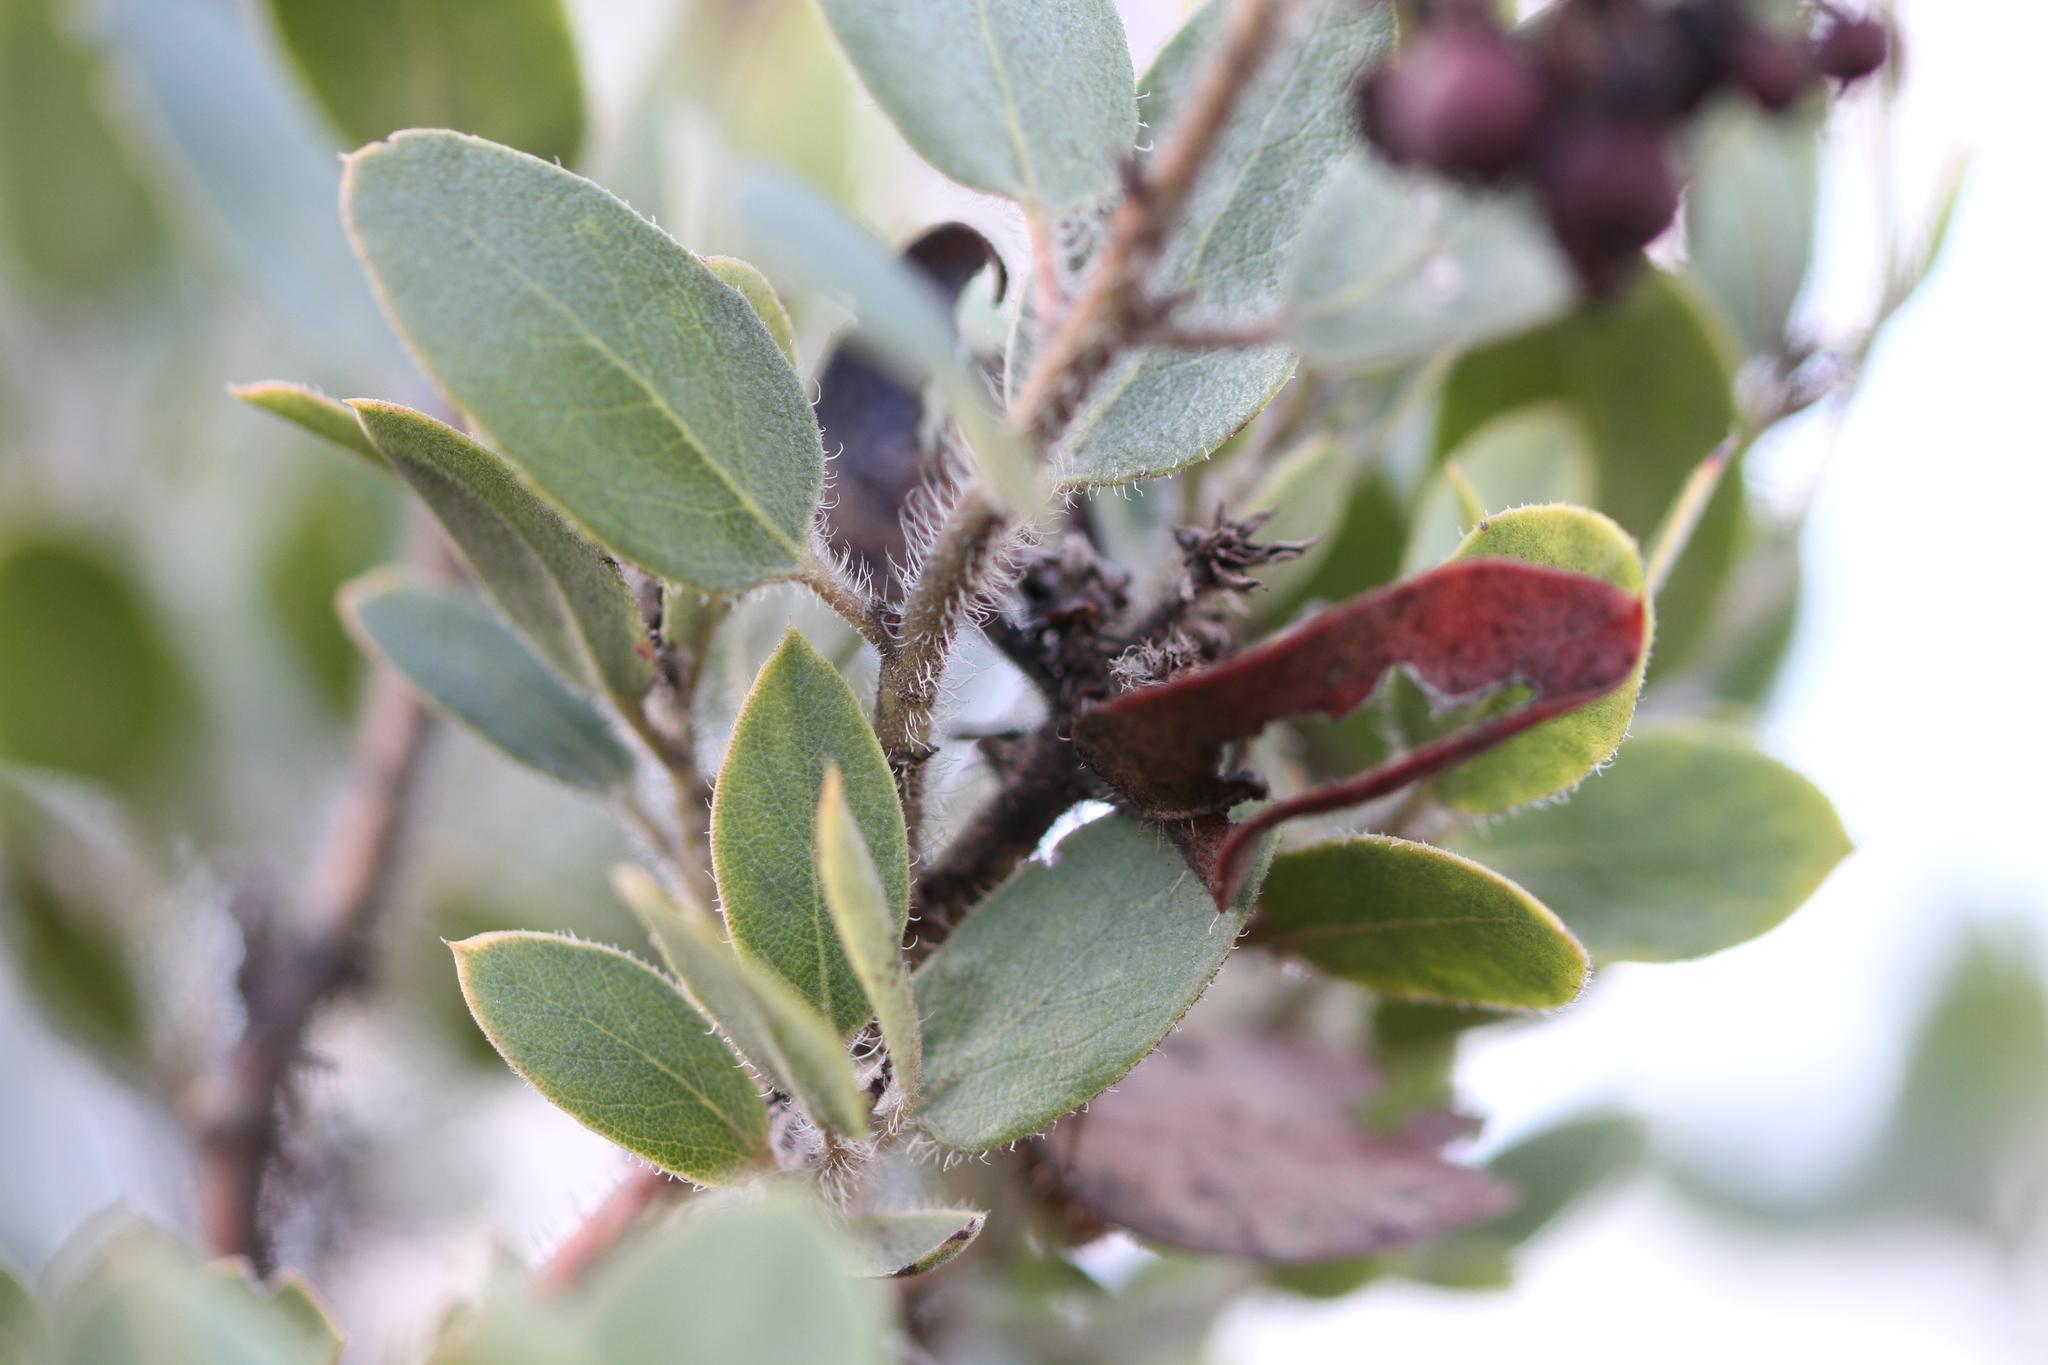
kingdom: Plantae
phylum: Tracheophyta
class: Magnoliopsida
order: Ericales
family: Ericaceae
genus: Arctostaphylos
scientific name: Arctostaphylos crustacea
